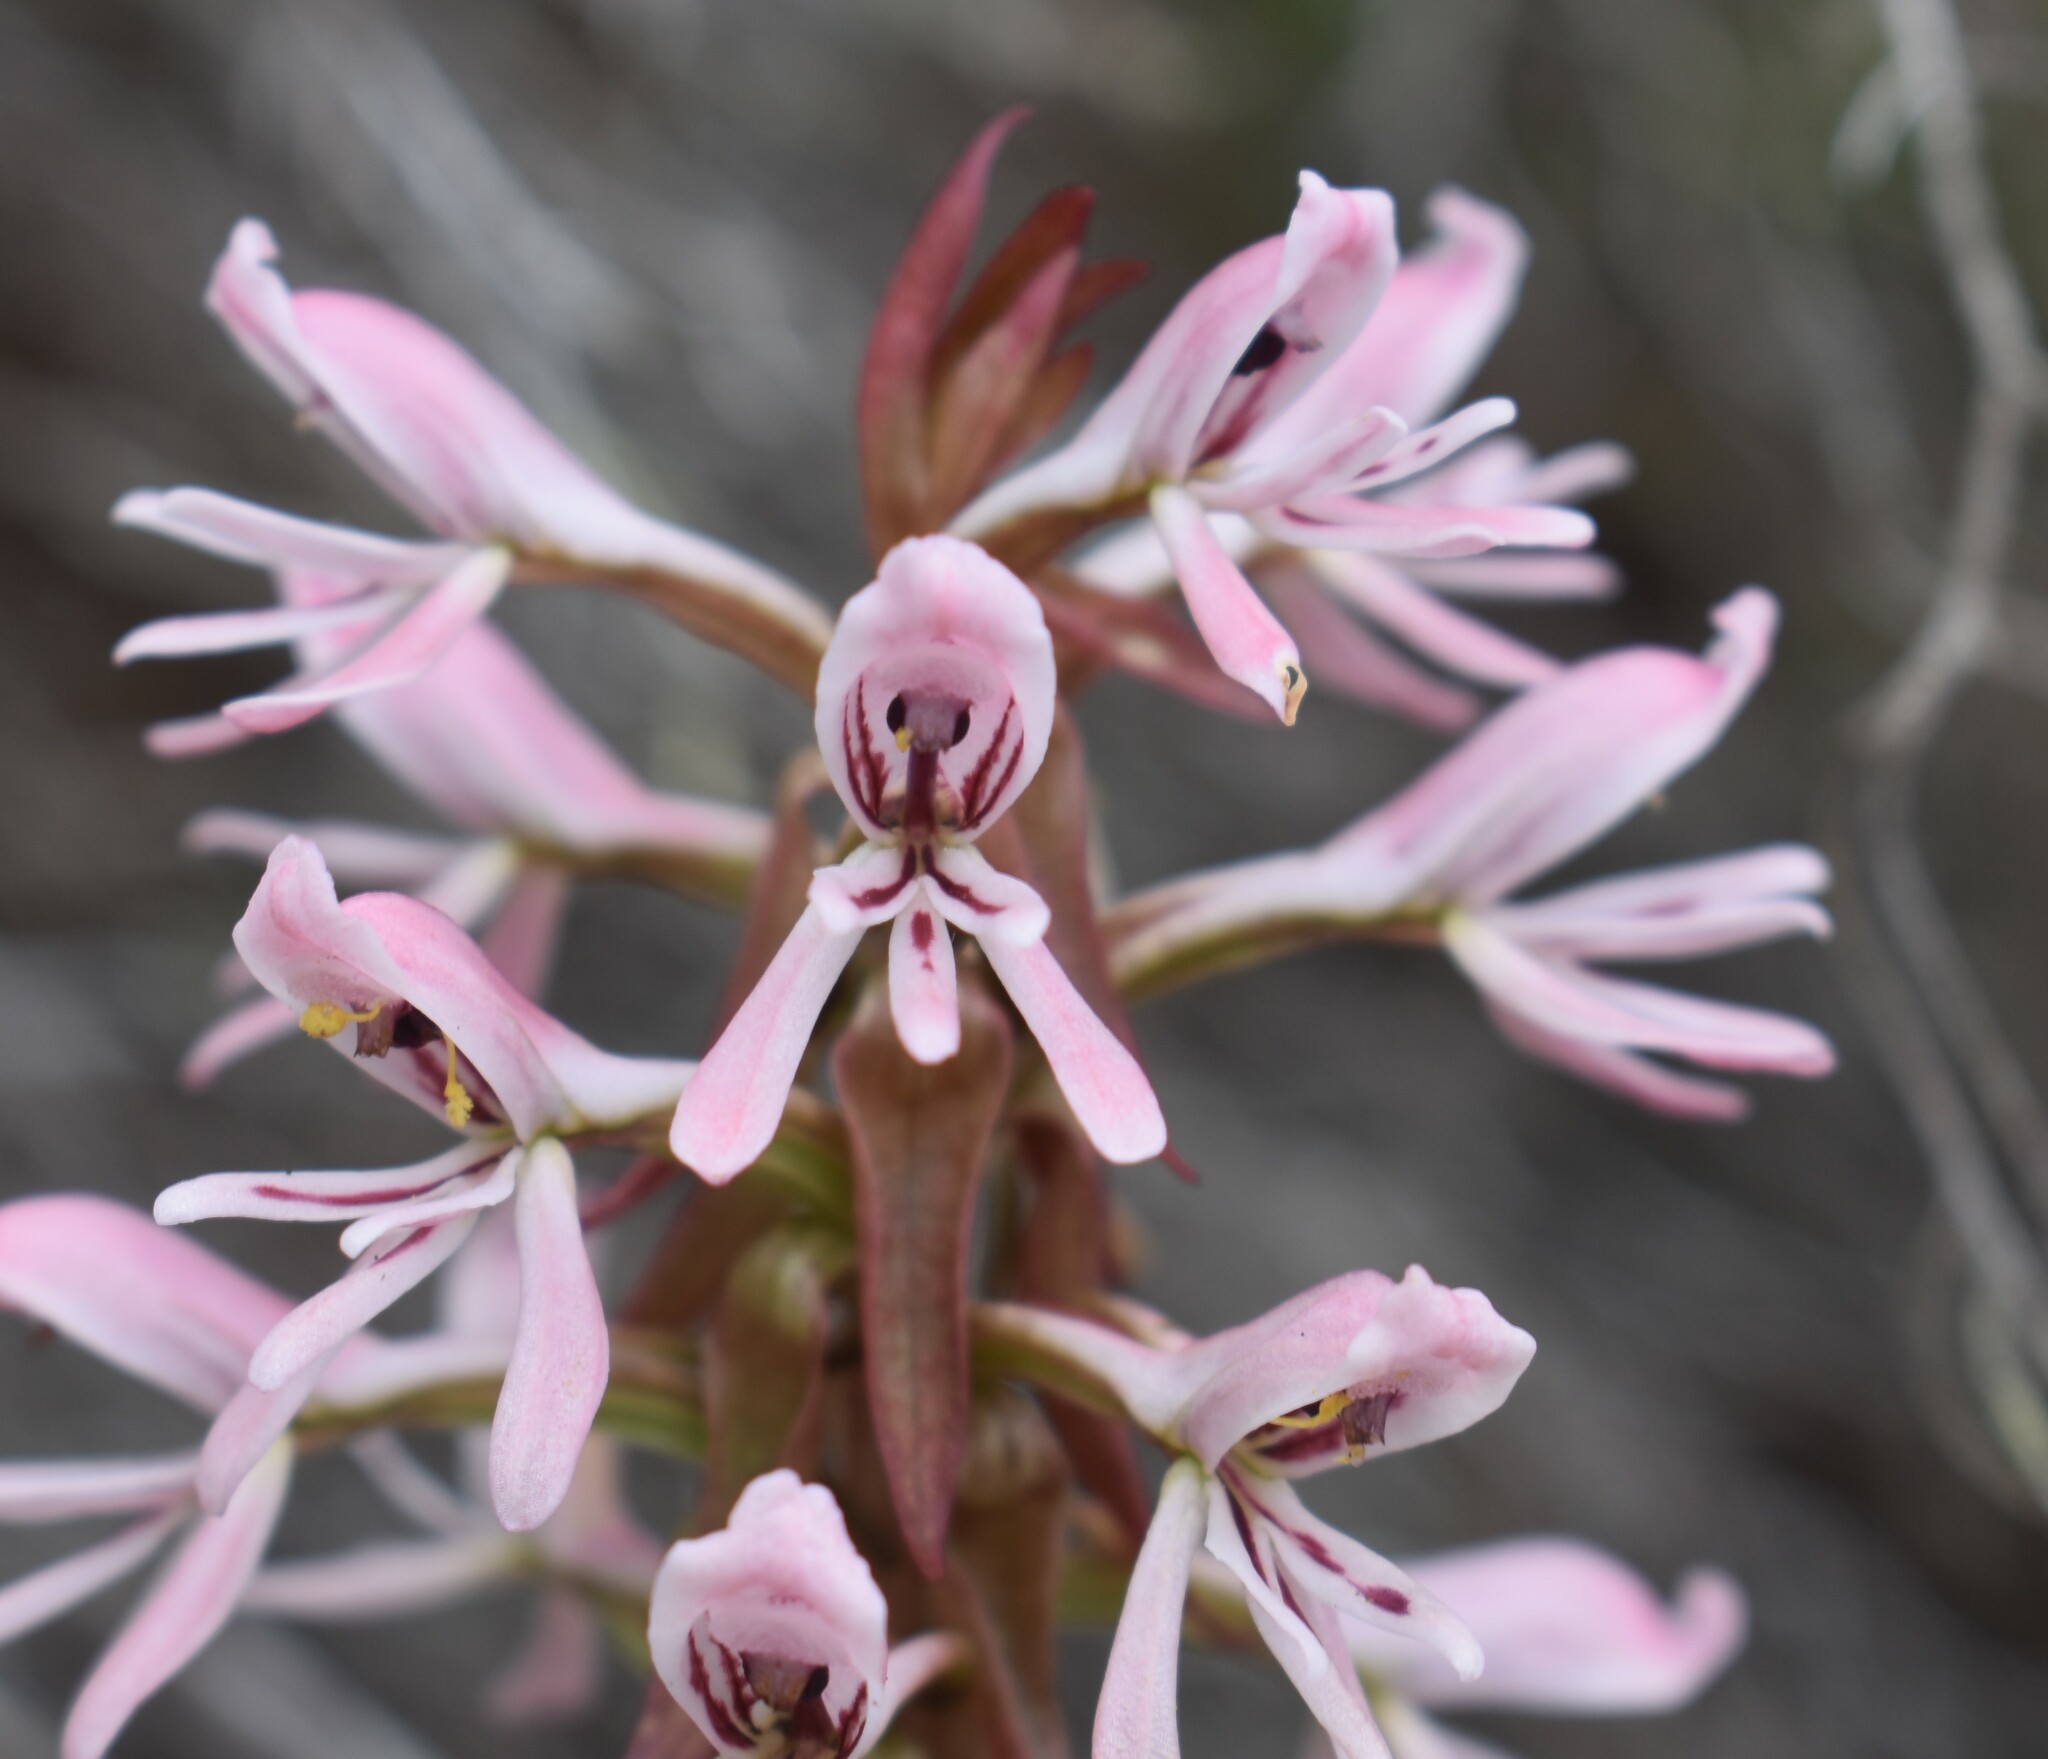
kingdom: Plantae
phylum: Tracheophyta
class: Liliopsida
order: Asparagales
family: Orchidaceae
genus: Satyrium
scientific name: Satyrium longicolle
